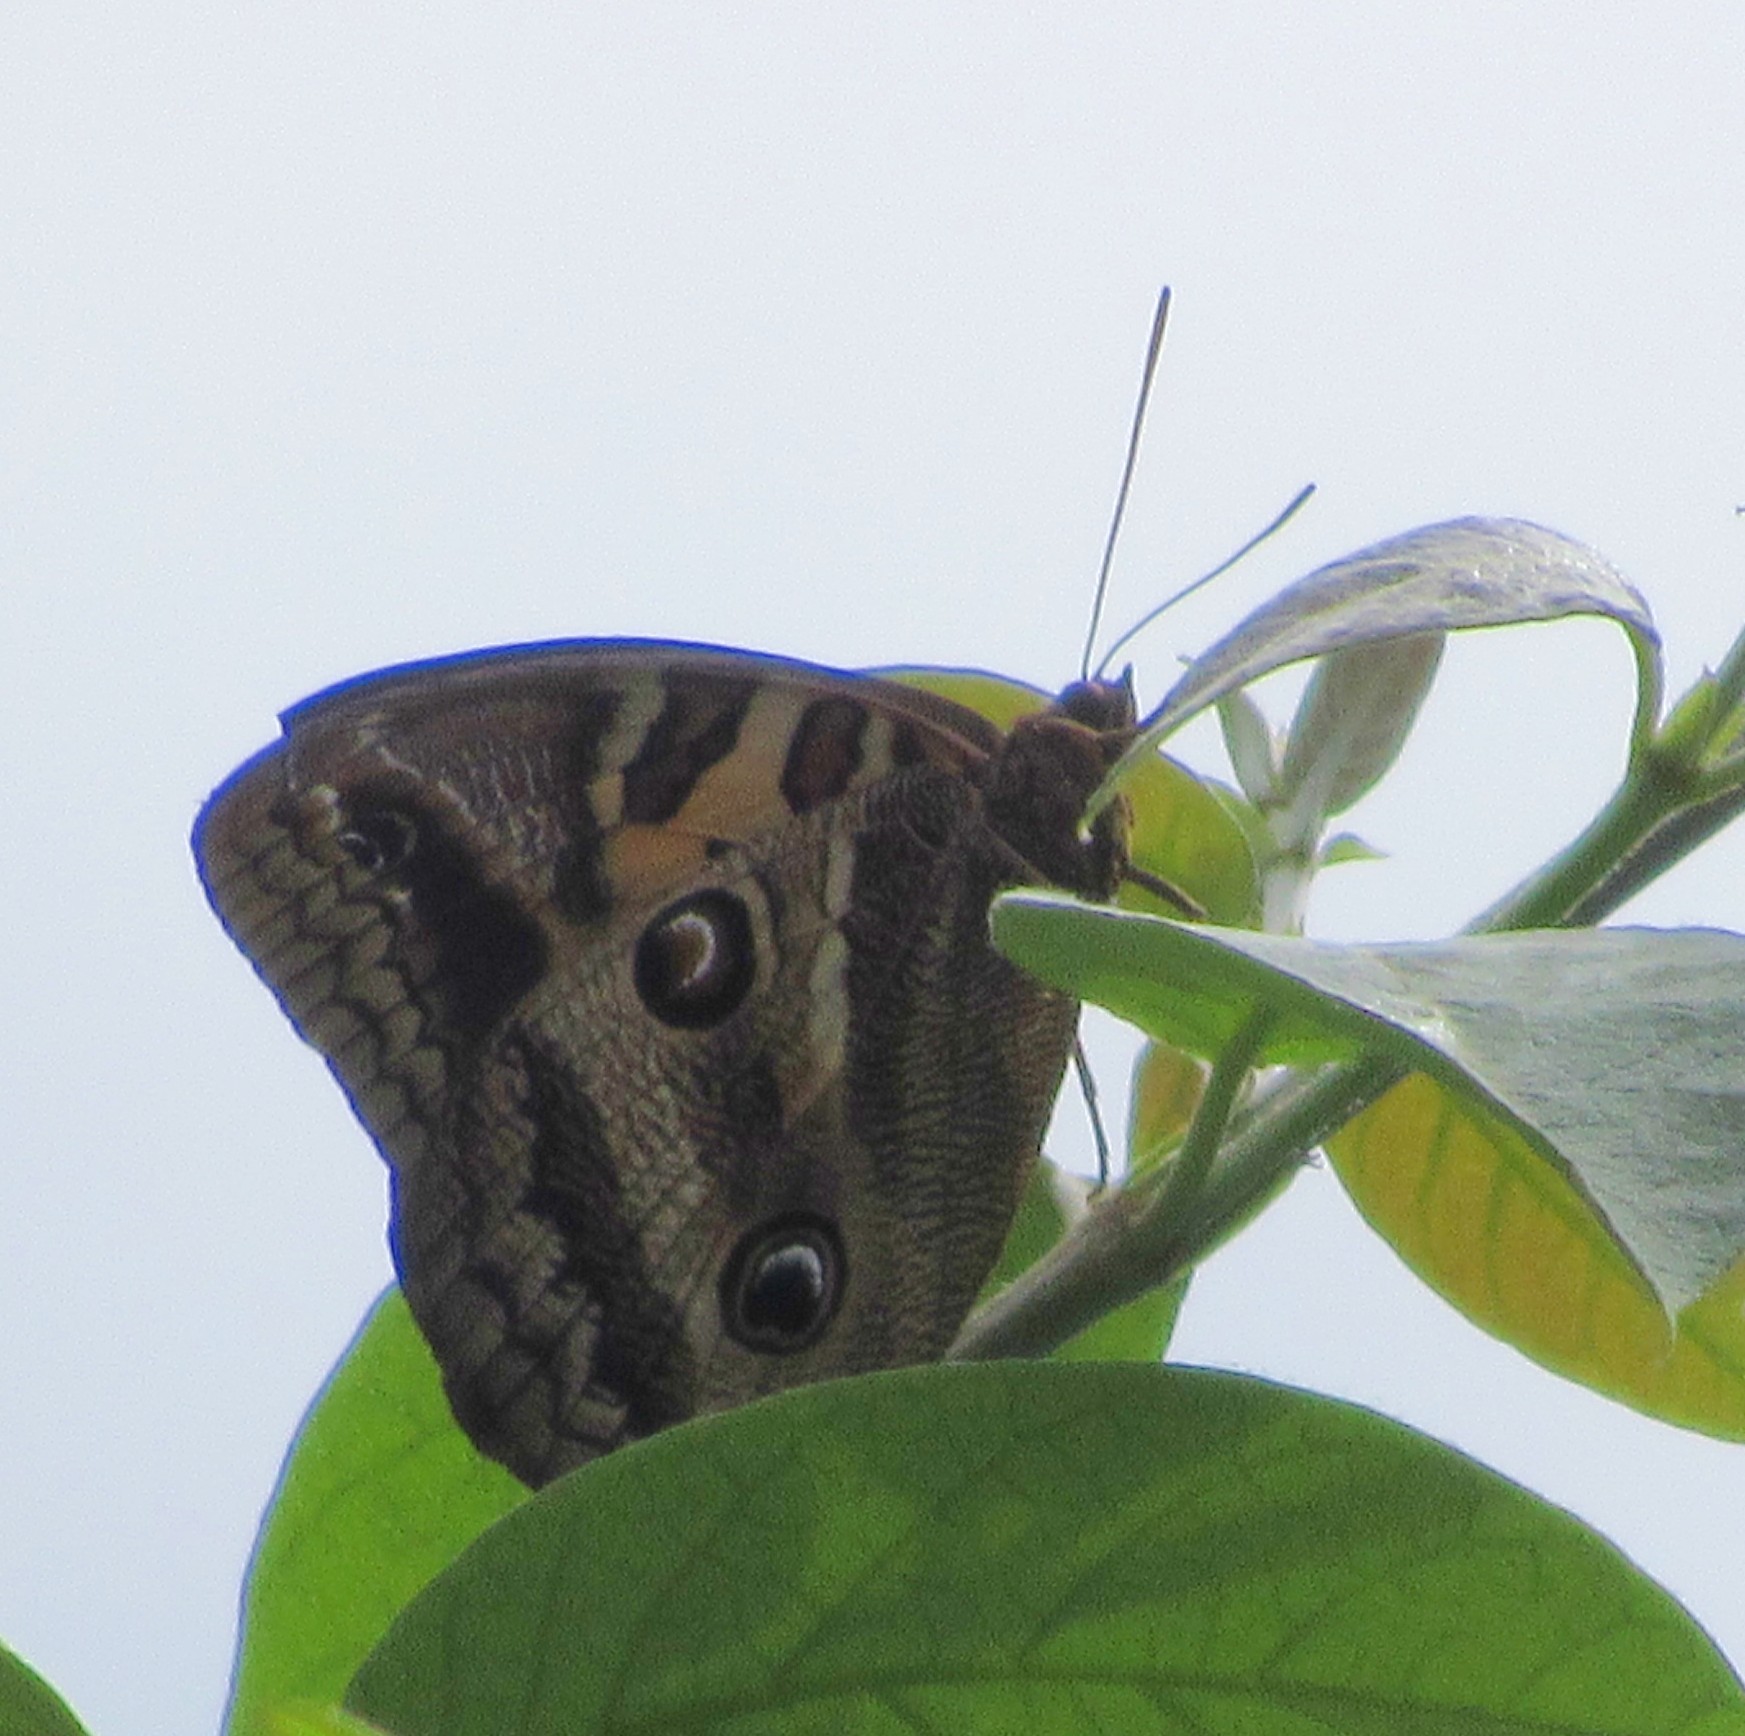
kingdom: Animalia
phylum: Arthropoda
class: Insecta
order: Lepidoptera
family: Nymphalidae
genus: Opsiphanes
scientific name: Opsiphanes batea
